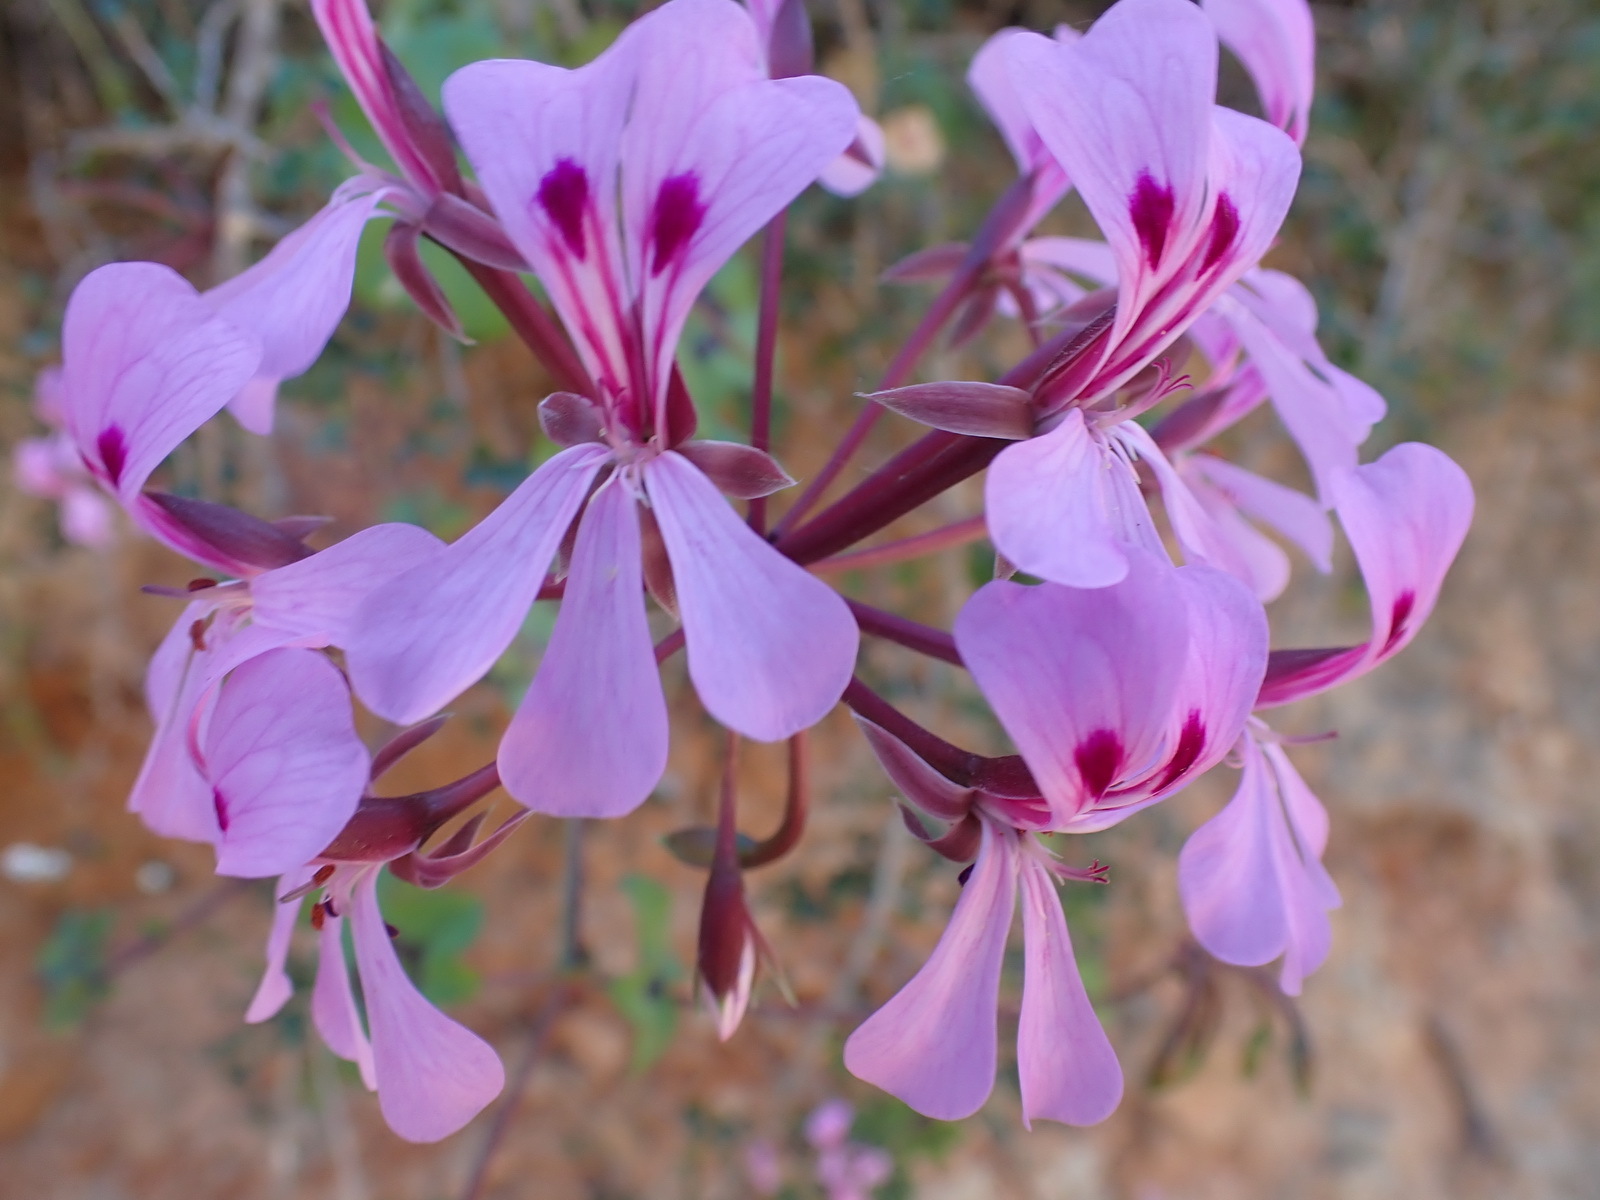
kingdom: Plantae
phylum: Tracheophyta
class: Magnoliopsida
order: Geraniales
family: Geraniaceae
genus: Pelargonium
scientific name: Pelargonium peltatum
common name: Ivyleaf geranium
